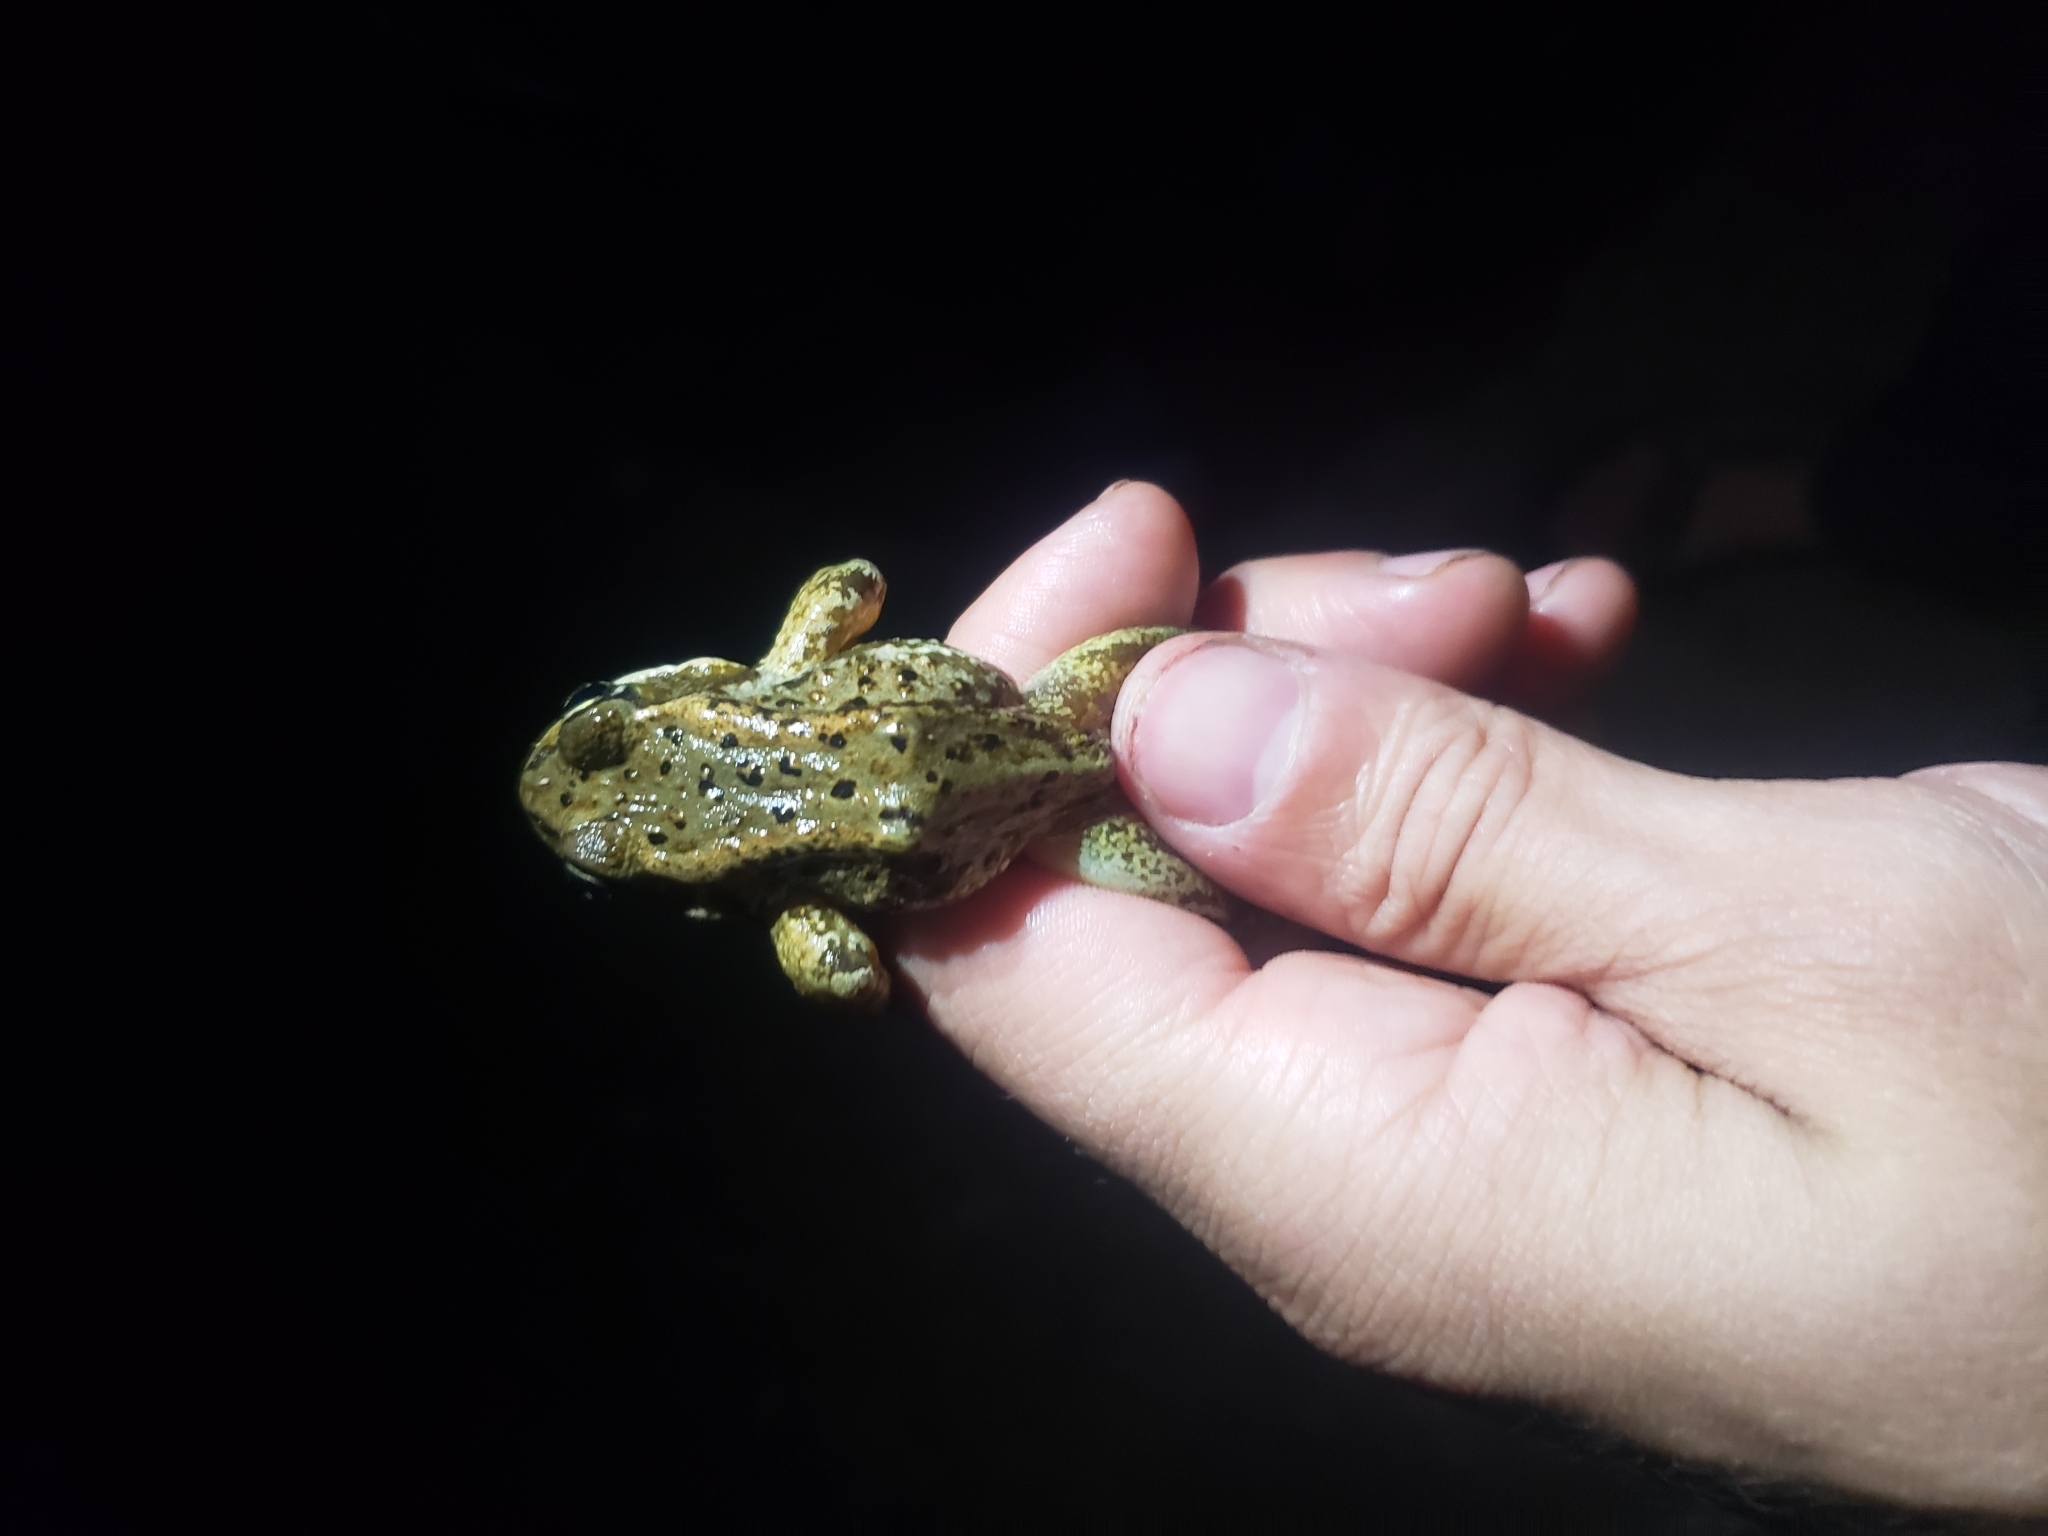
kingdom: Animalia
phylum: Chordata
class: Amphibia
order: Anura
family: Ranidae
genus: Rana
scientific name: Rana cascadae
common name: Cascades frog
